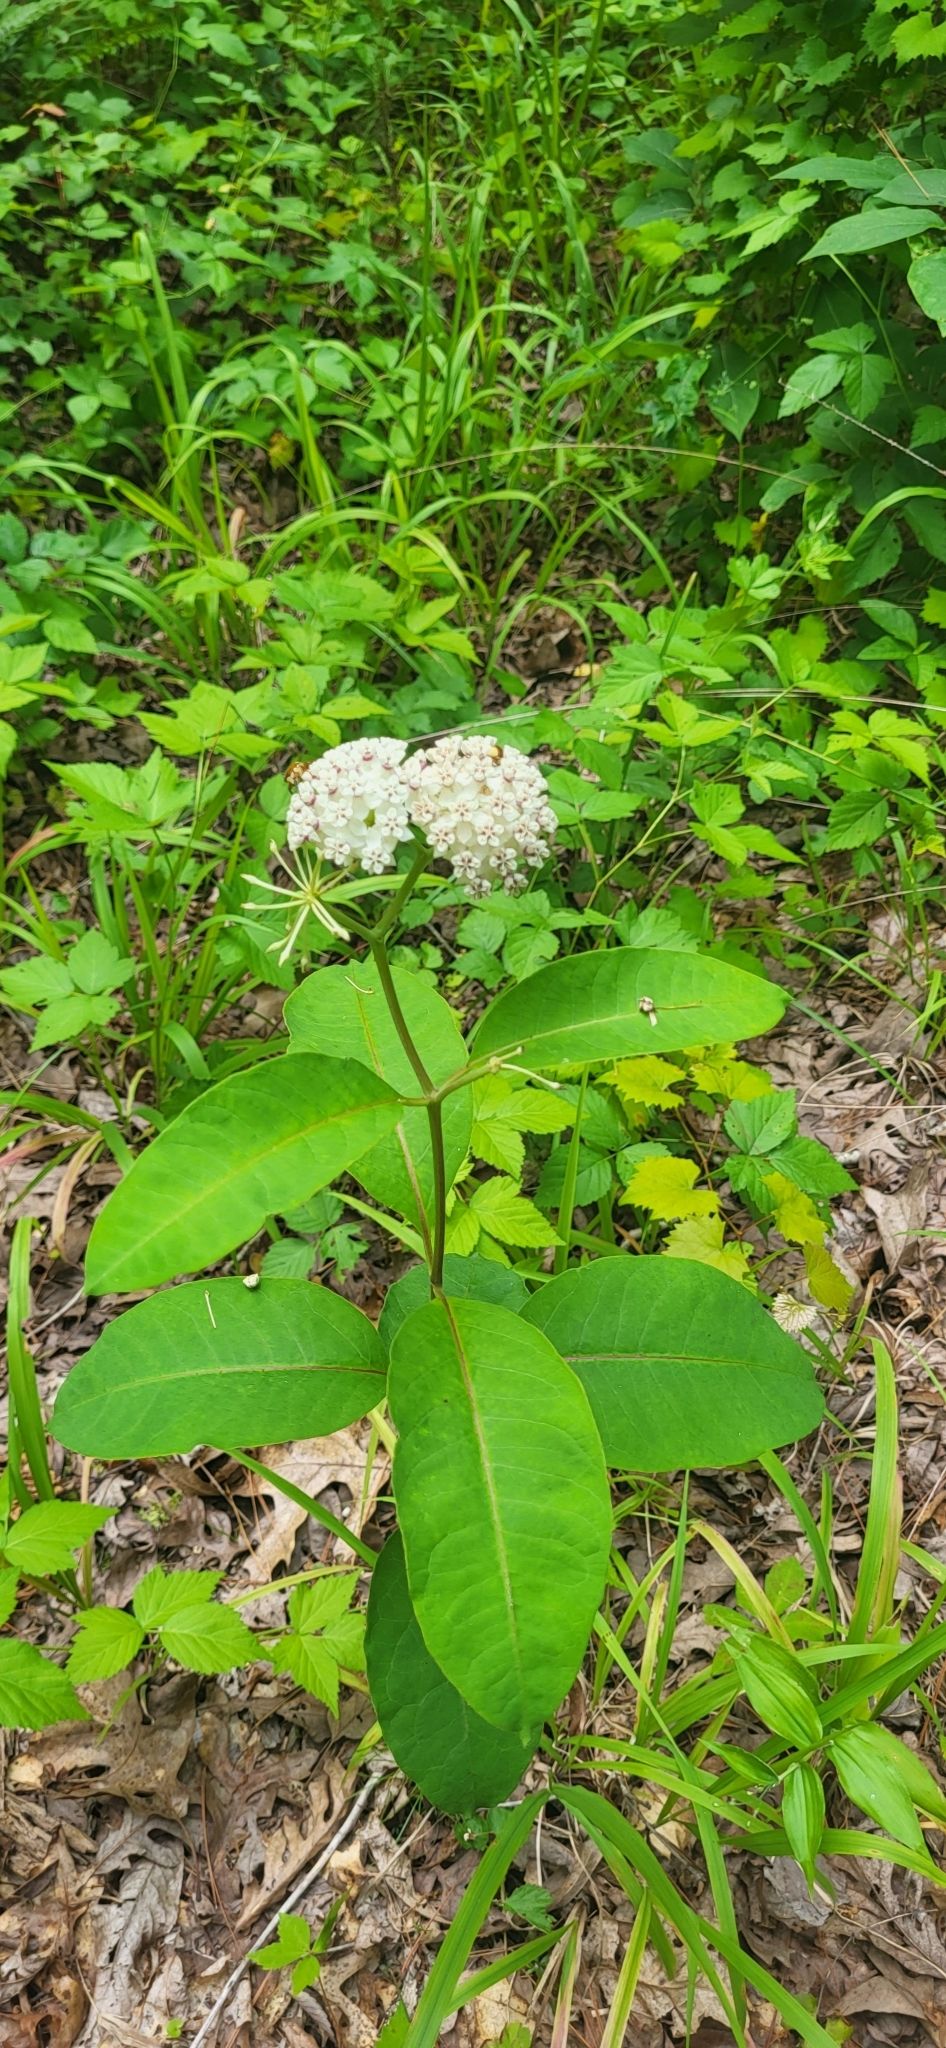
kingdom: Plantae
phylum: Tracheophyta
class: Magnoliopsida
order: Gentianales
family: Apocynaceae
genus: Asclepias
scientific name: Asclepias variegata
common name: Variegated milkweed
